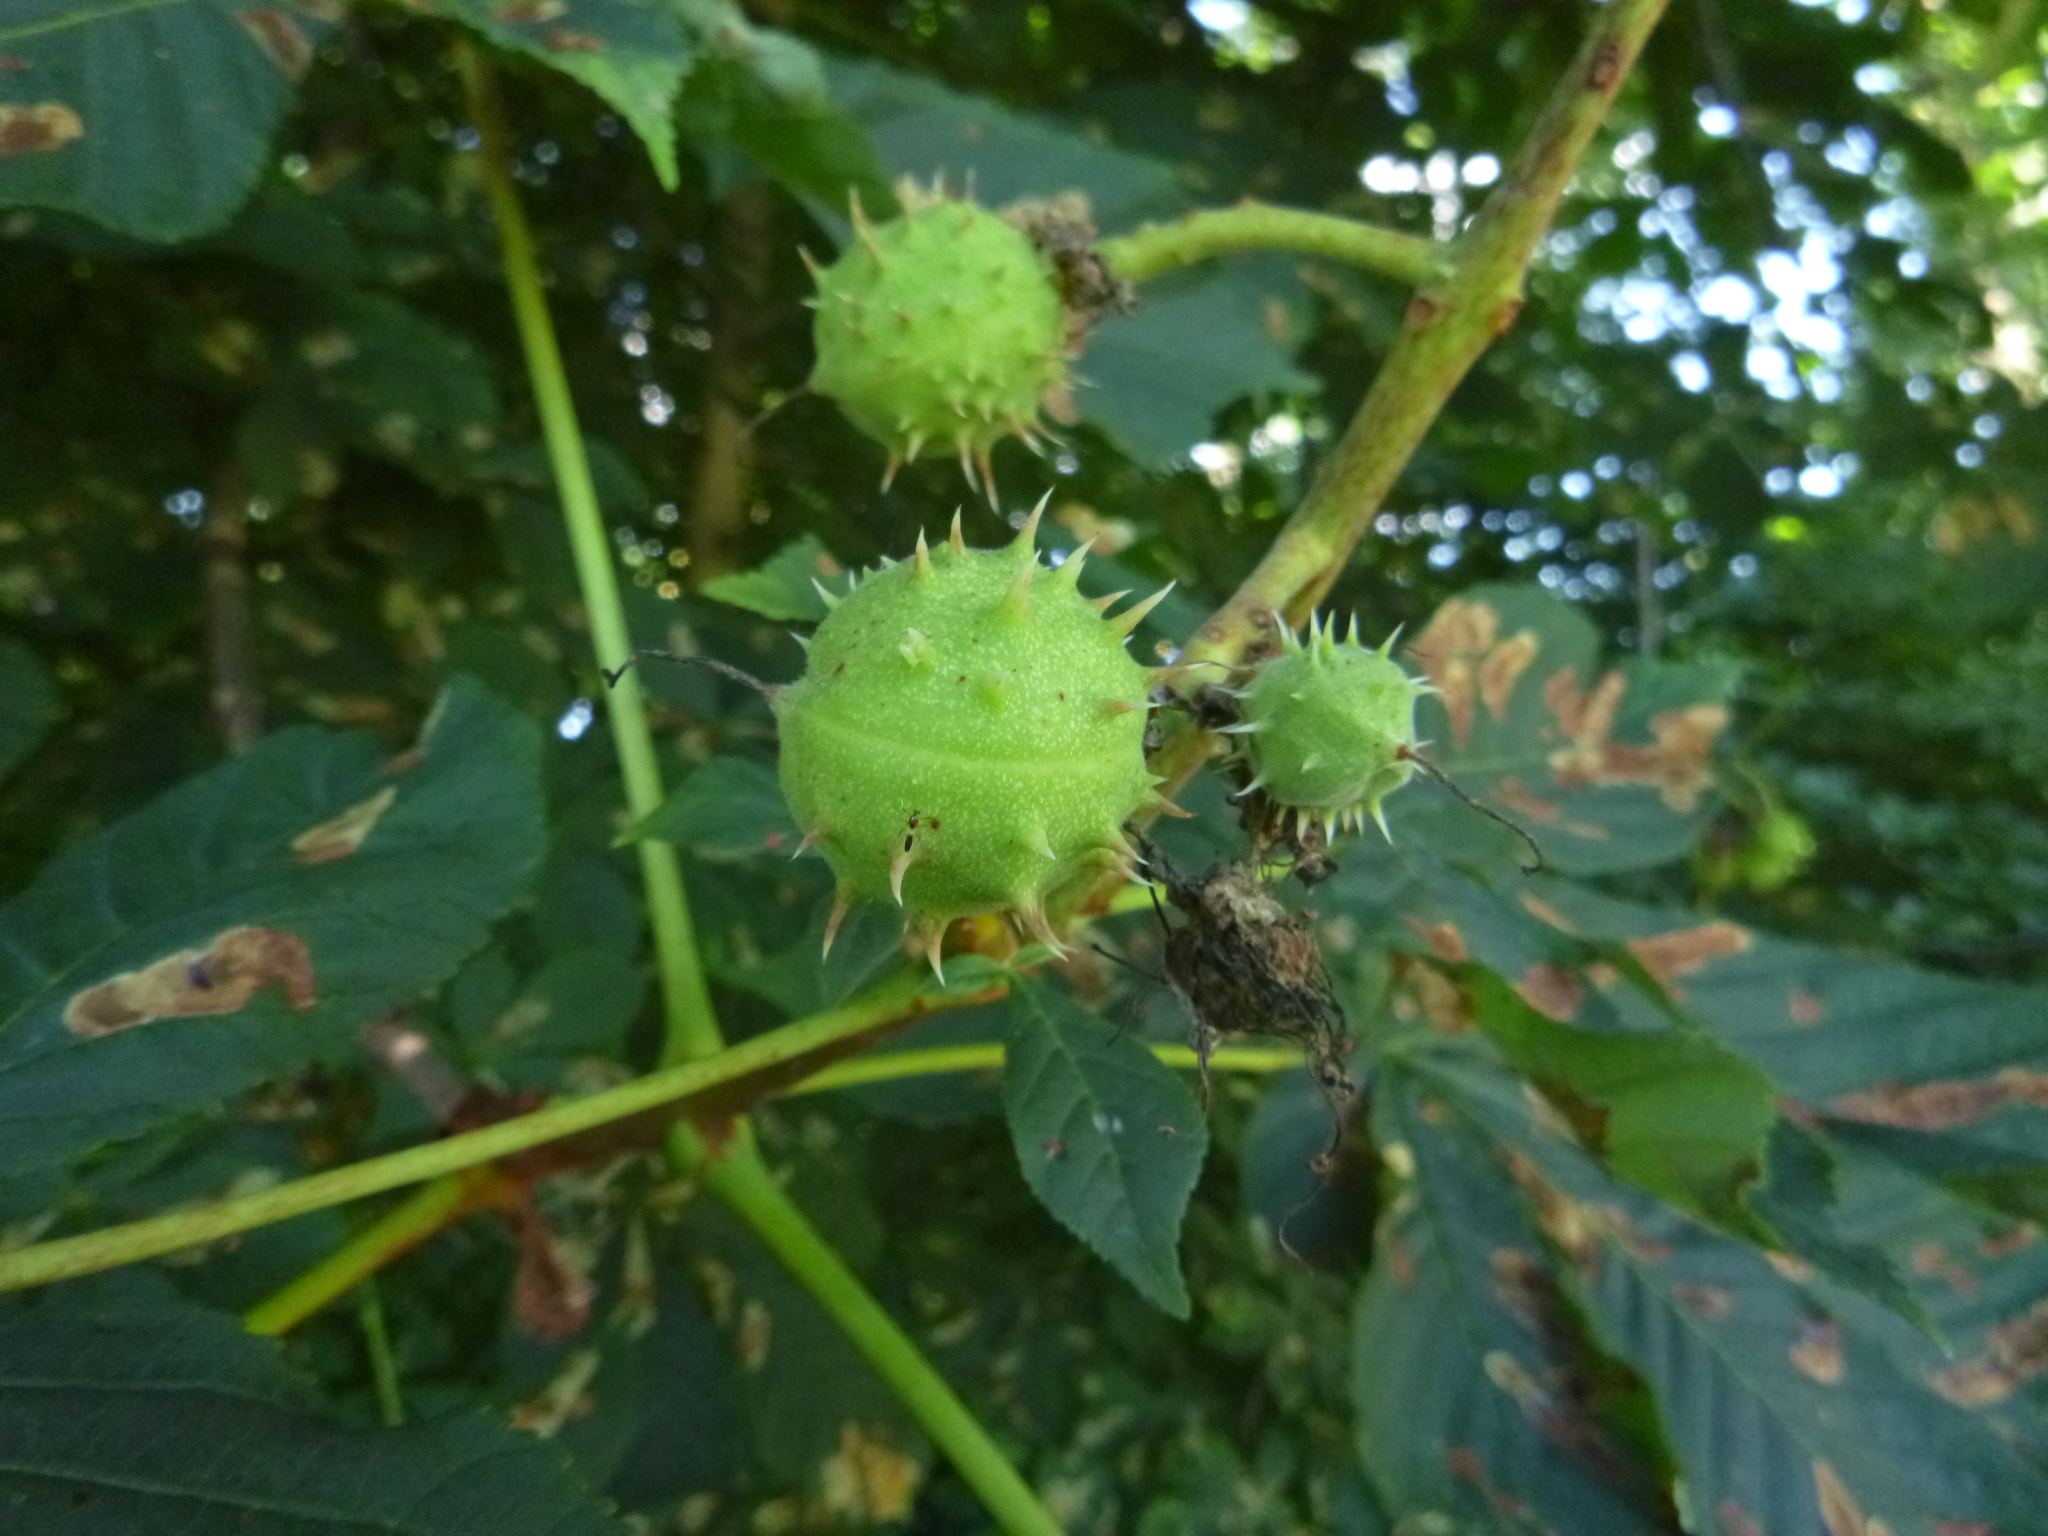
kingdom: Plantae
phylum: Tracheophyta
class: Magnoliopsida
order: Sapindales
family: Sapindaceae
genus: Aesculus
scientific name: Aesculus hippocastanum
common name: Horse-chestnut
